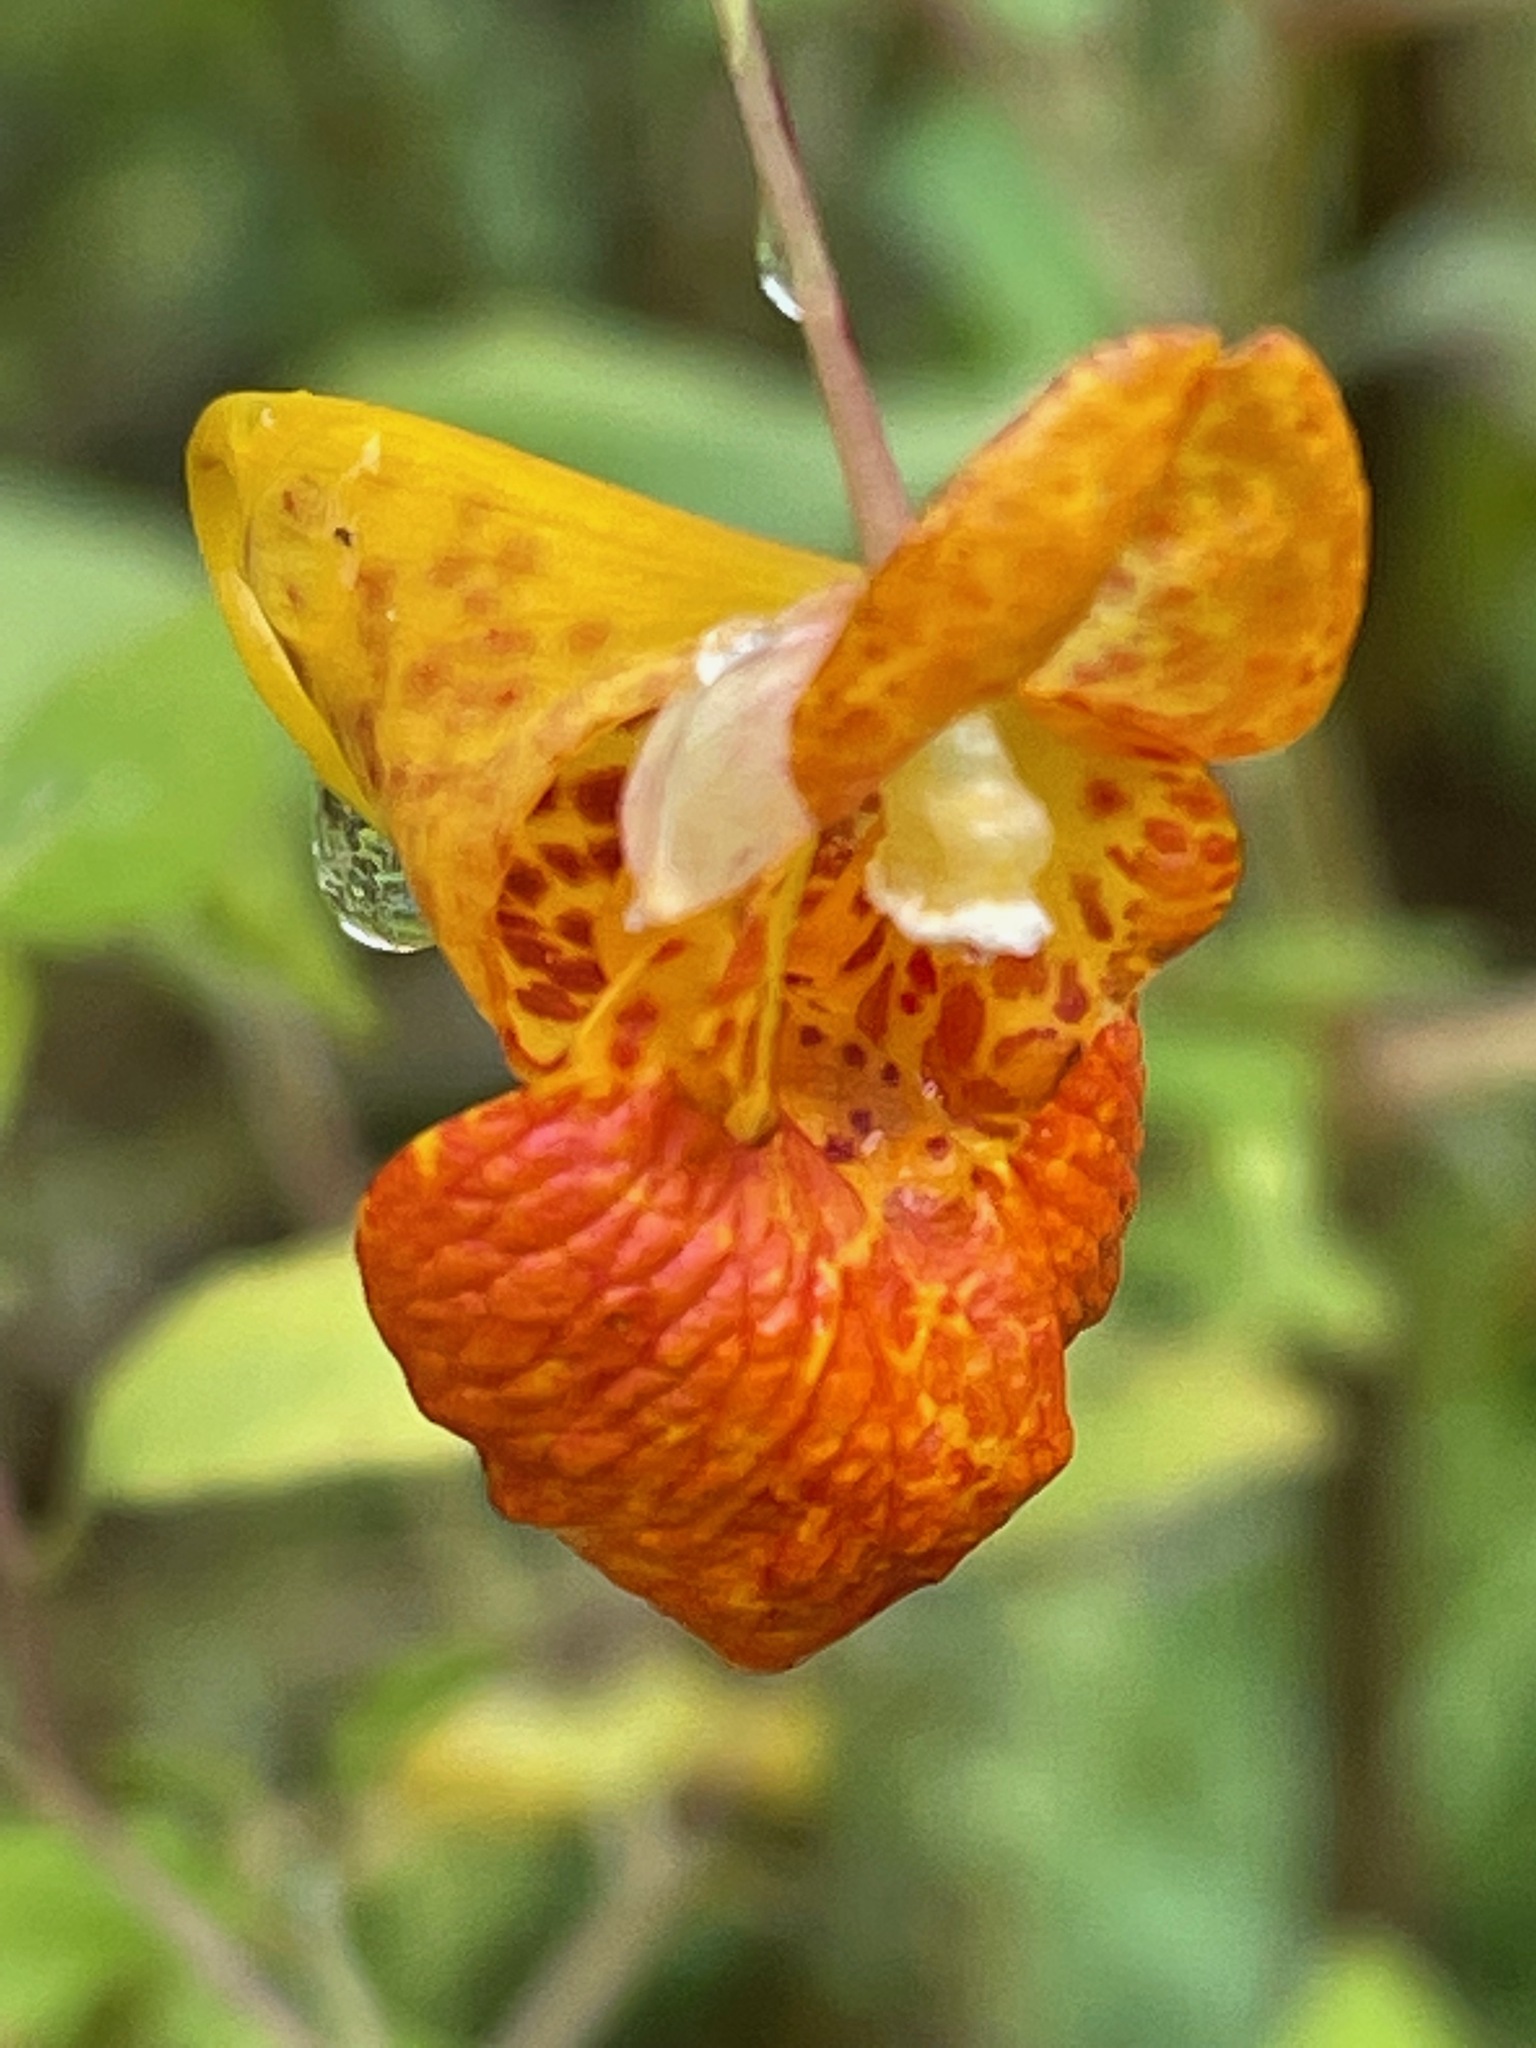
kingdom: Plantae
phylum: Tracheophyta
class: Magnoliopsida
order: Ericales
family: Balsaminaceae
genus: Impatiens
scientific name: Impatiens capensis
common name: Orange balsam
